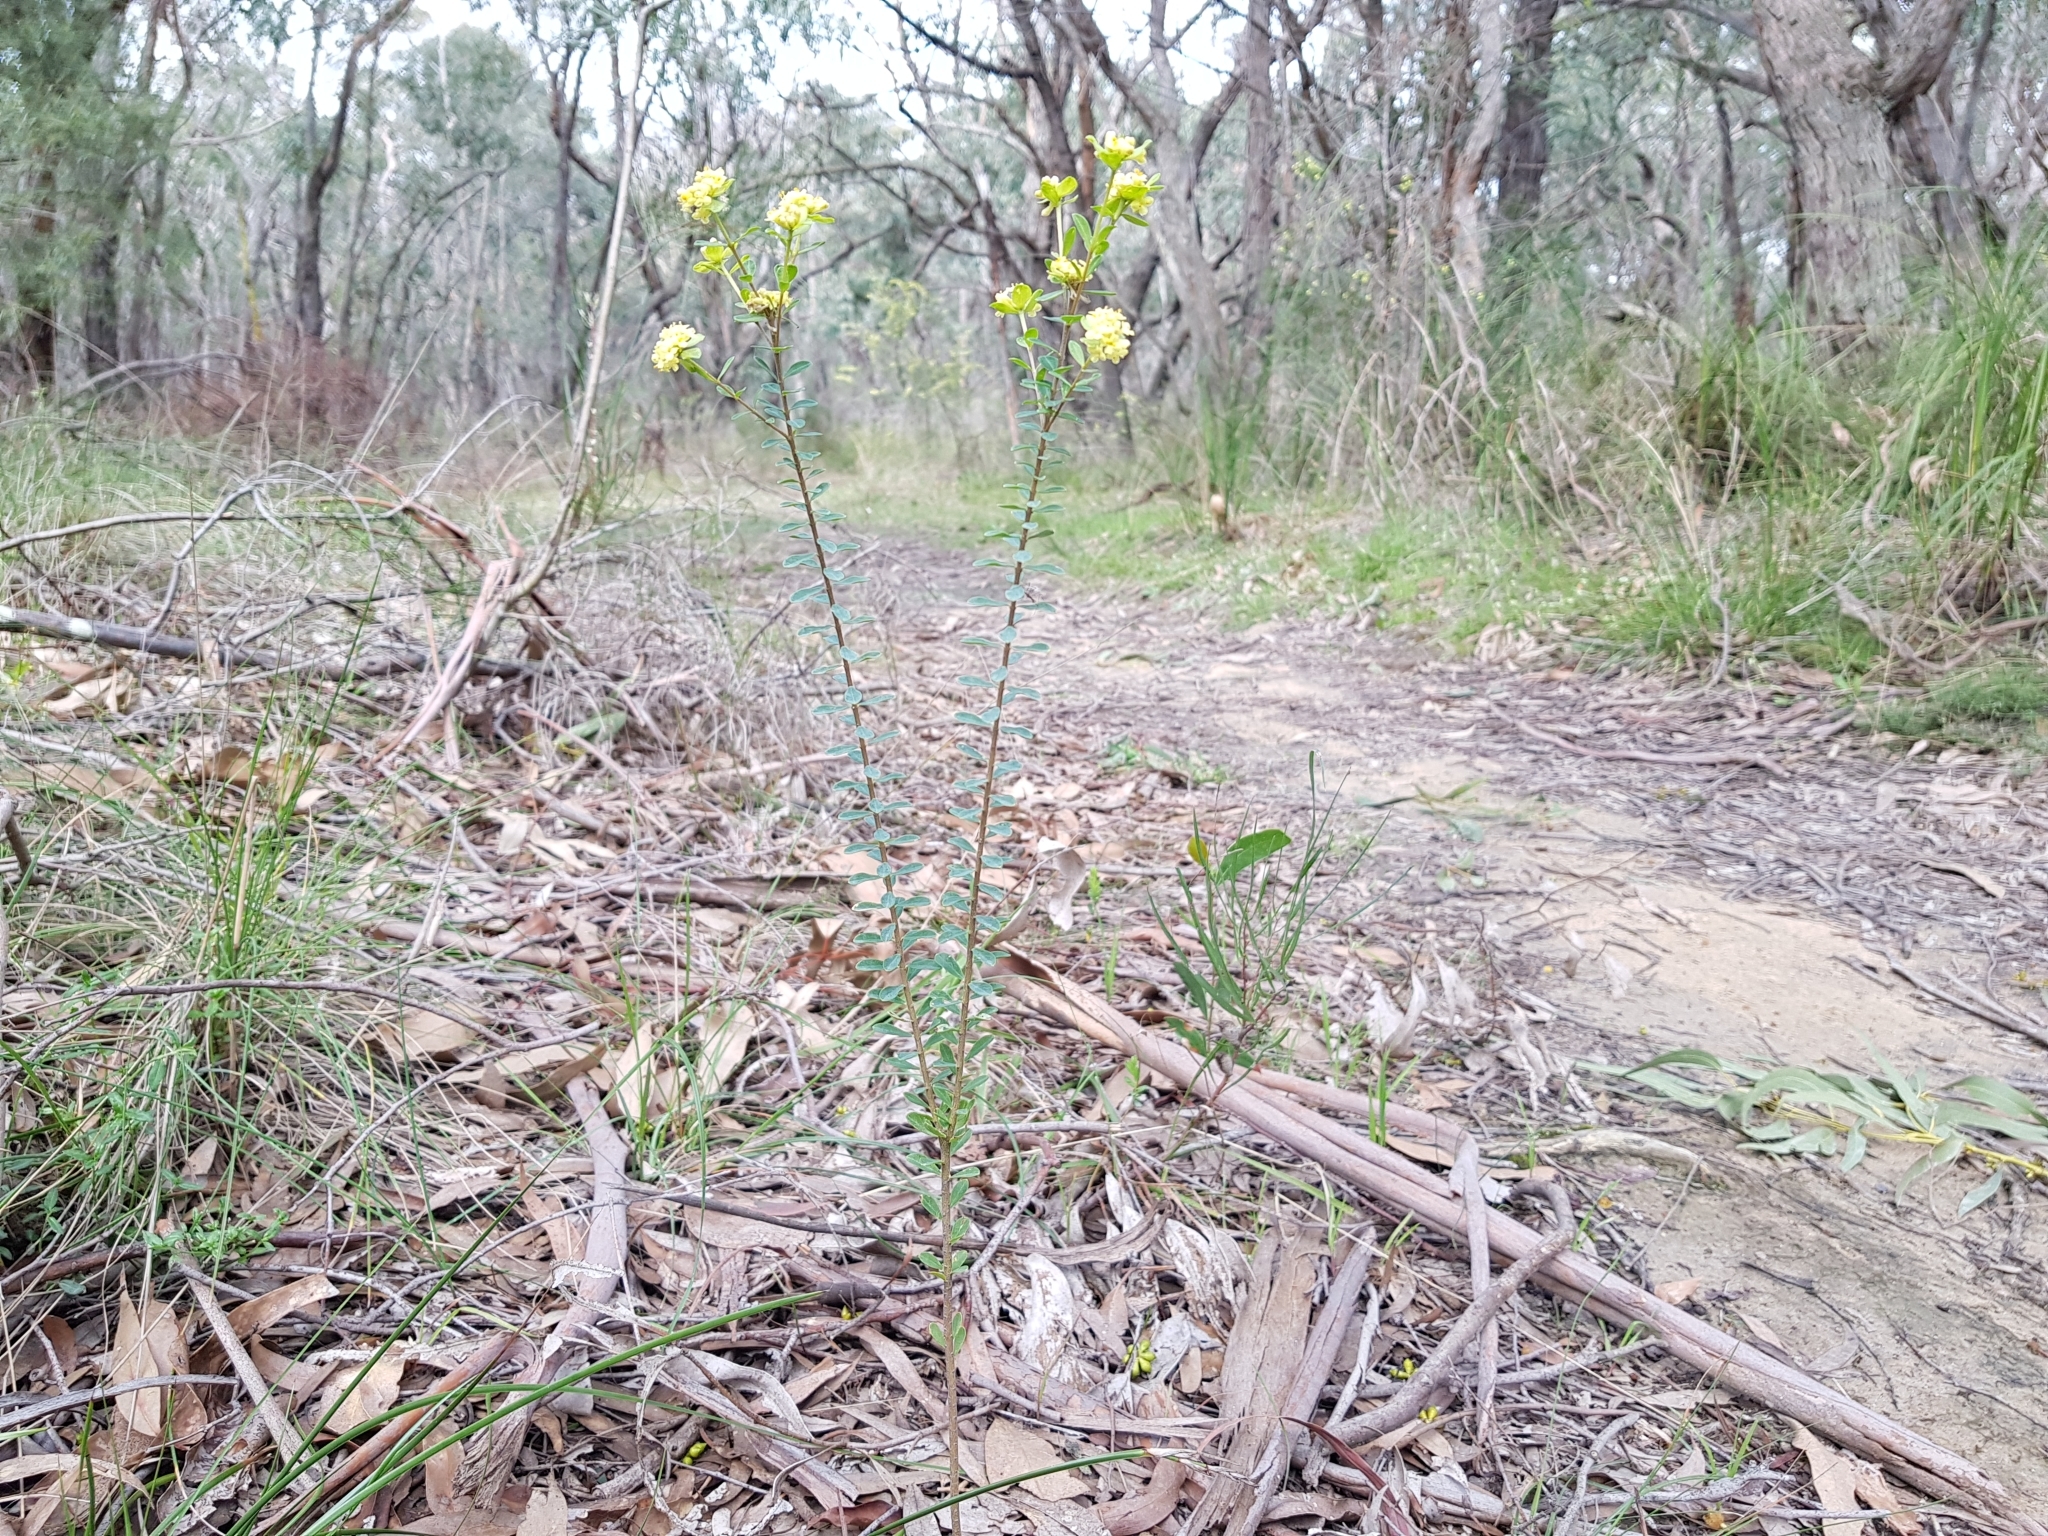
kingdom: Plantae
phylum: Tracheophyta
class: Magnoliopsida
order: Malvales
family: Thymelaeaceae
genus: Pimelea
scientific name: Pimelea flava
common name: Yellow riceflower
